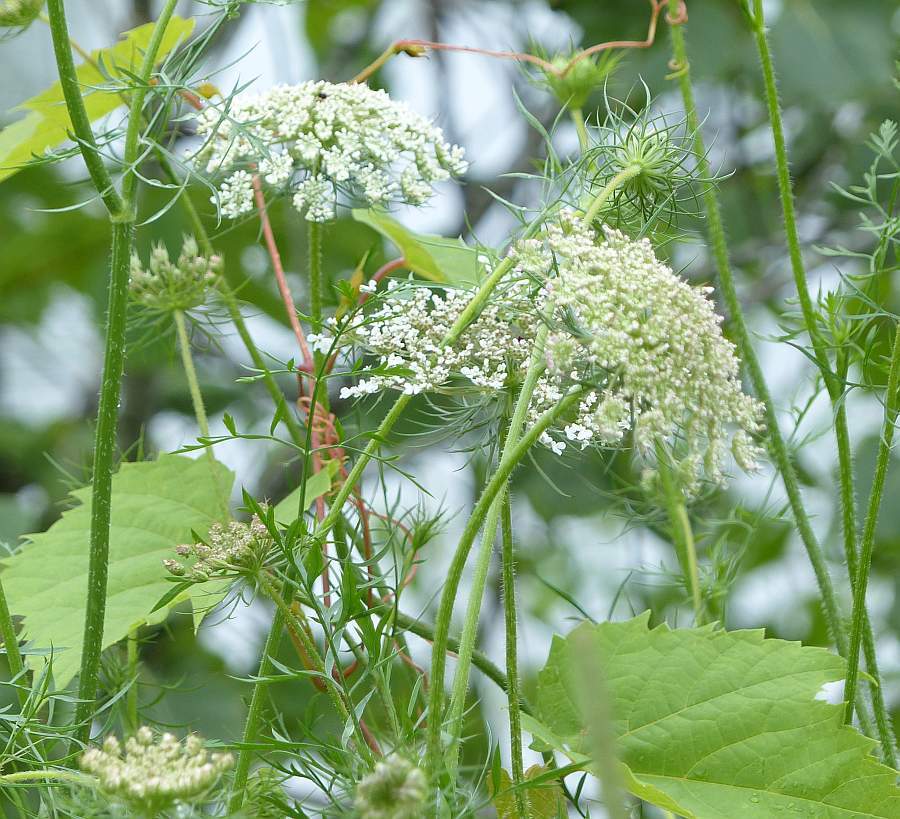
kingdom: Plantae
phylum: Tracheophyta
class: Magnoliopsida
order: Apiales
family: Apiaceae
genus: Daucus
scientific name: Daucus carota
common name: Wild carrot
